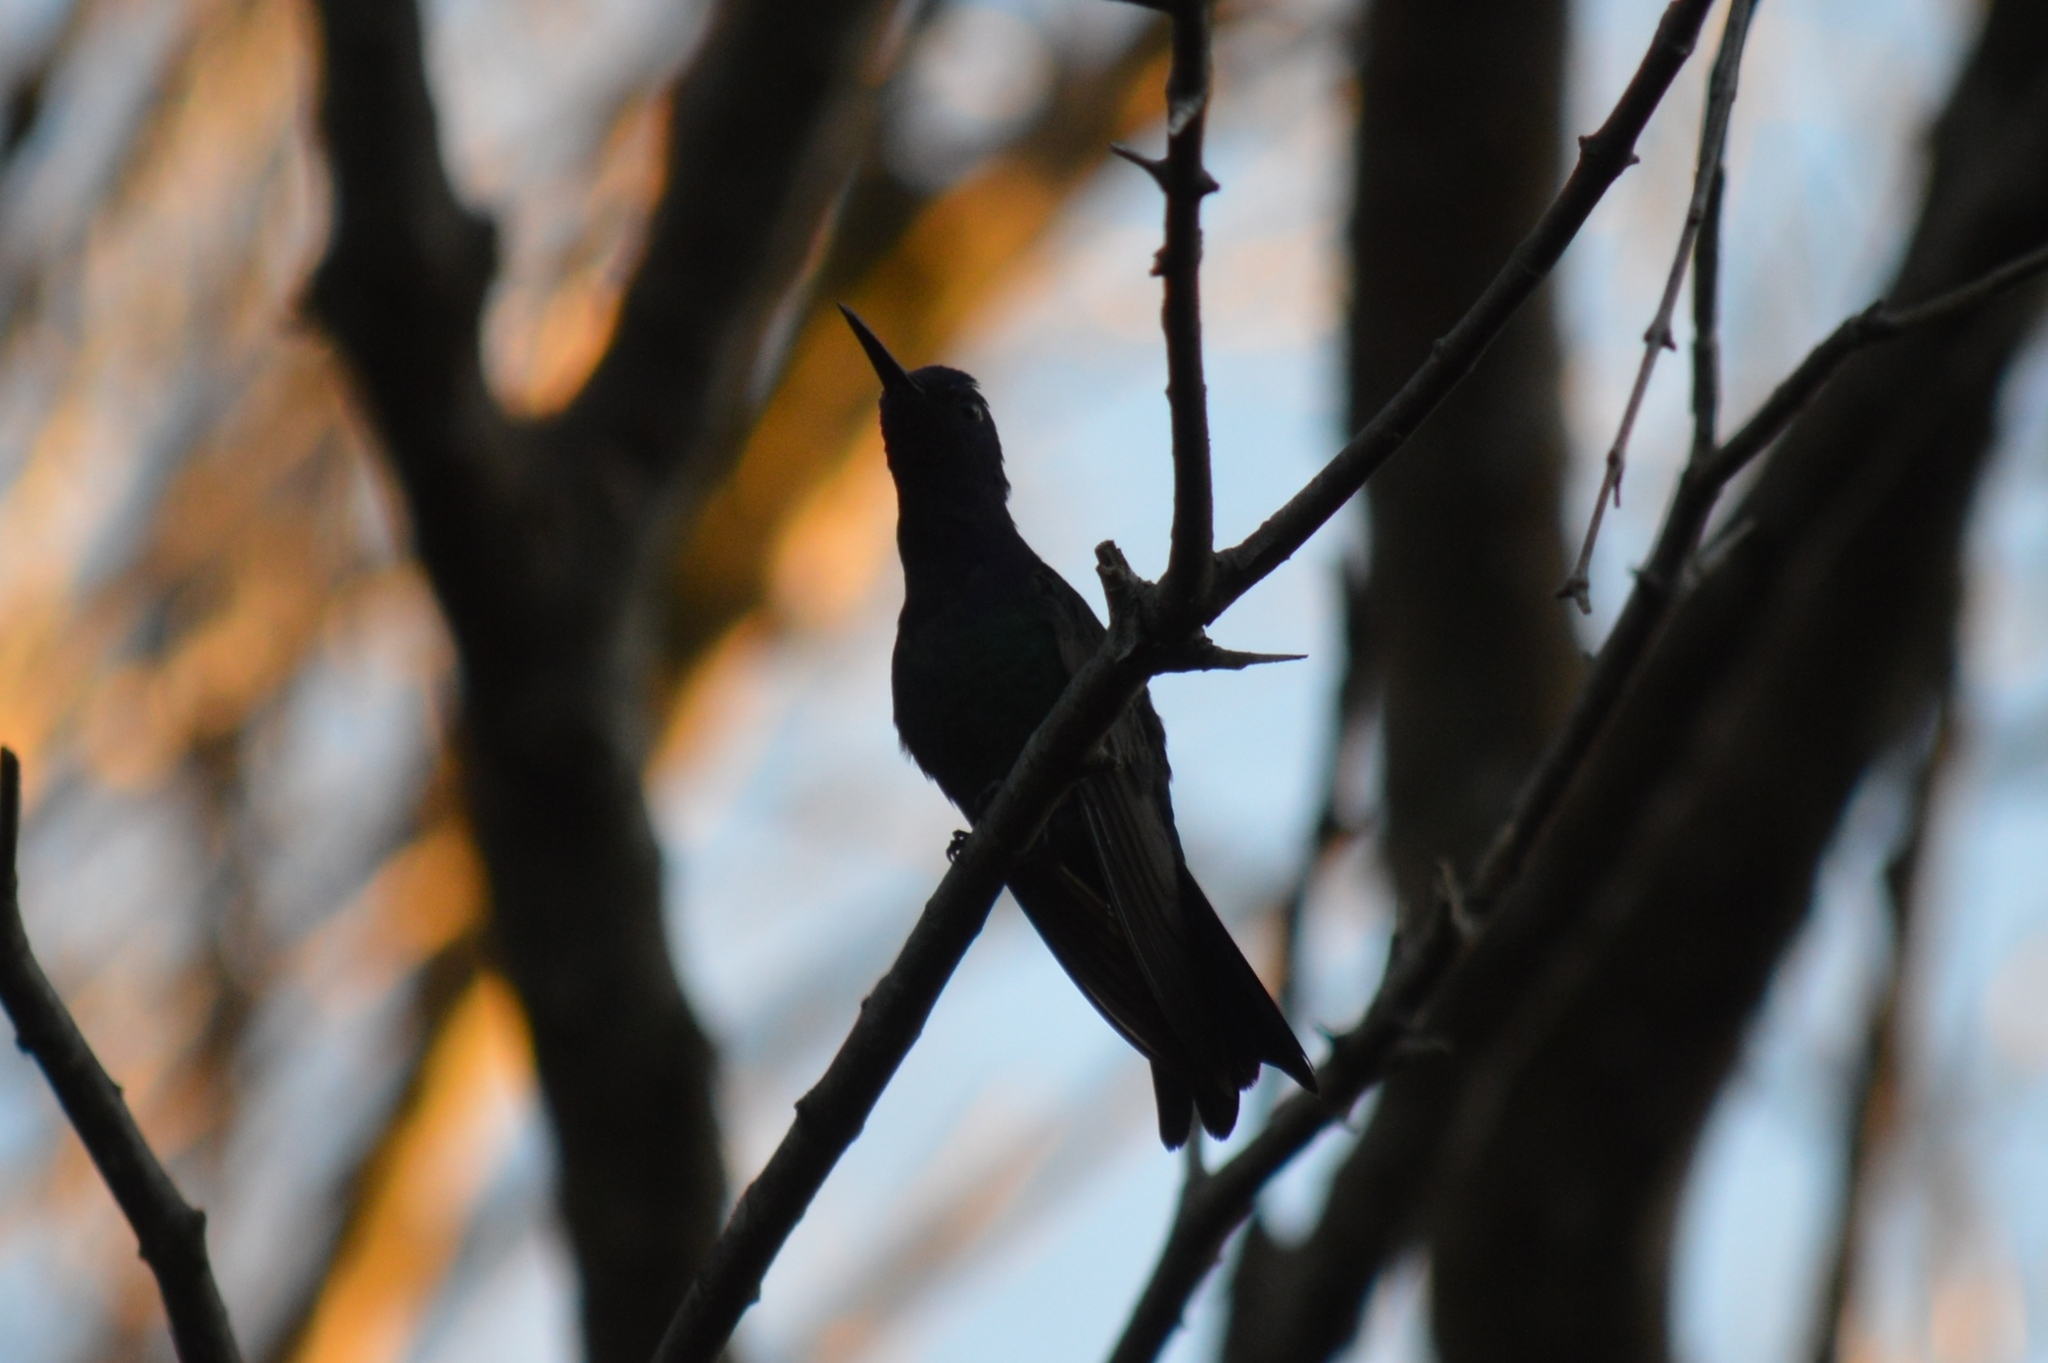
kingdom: Animalia
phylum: Chordata
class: Aves
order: Apodiformes
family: Trochilidae
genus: Eupetomena
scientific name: Eupetomena macroura
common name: Swallow-tailed hummingbird
